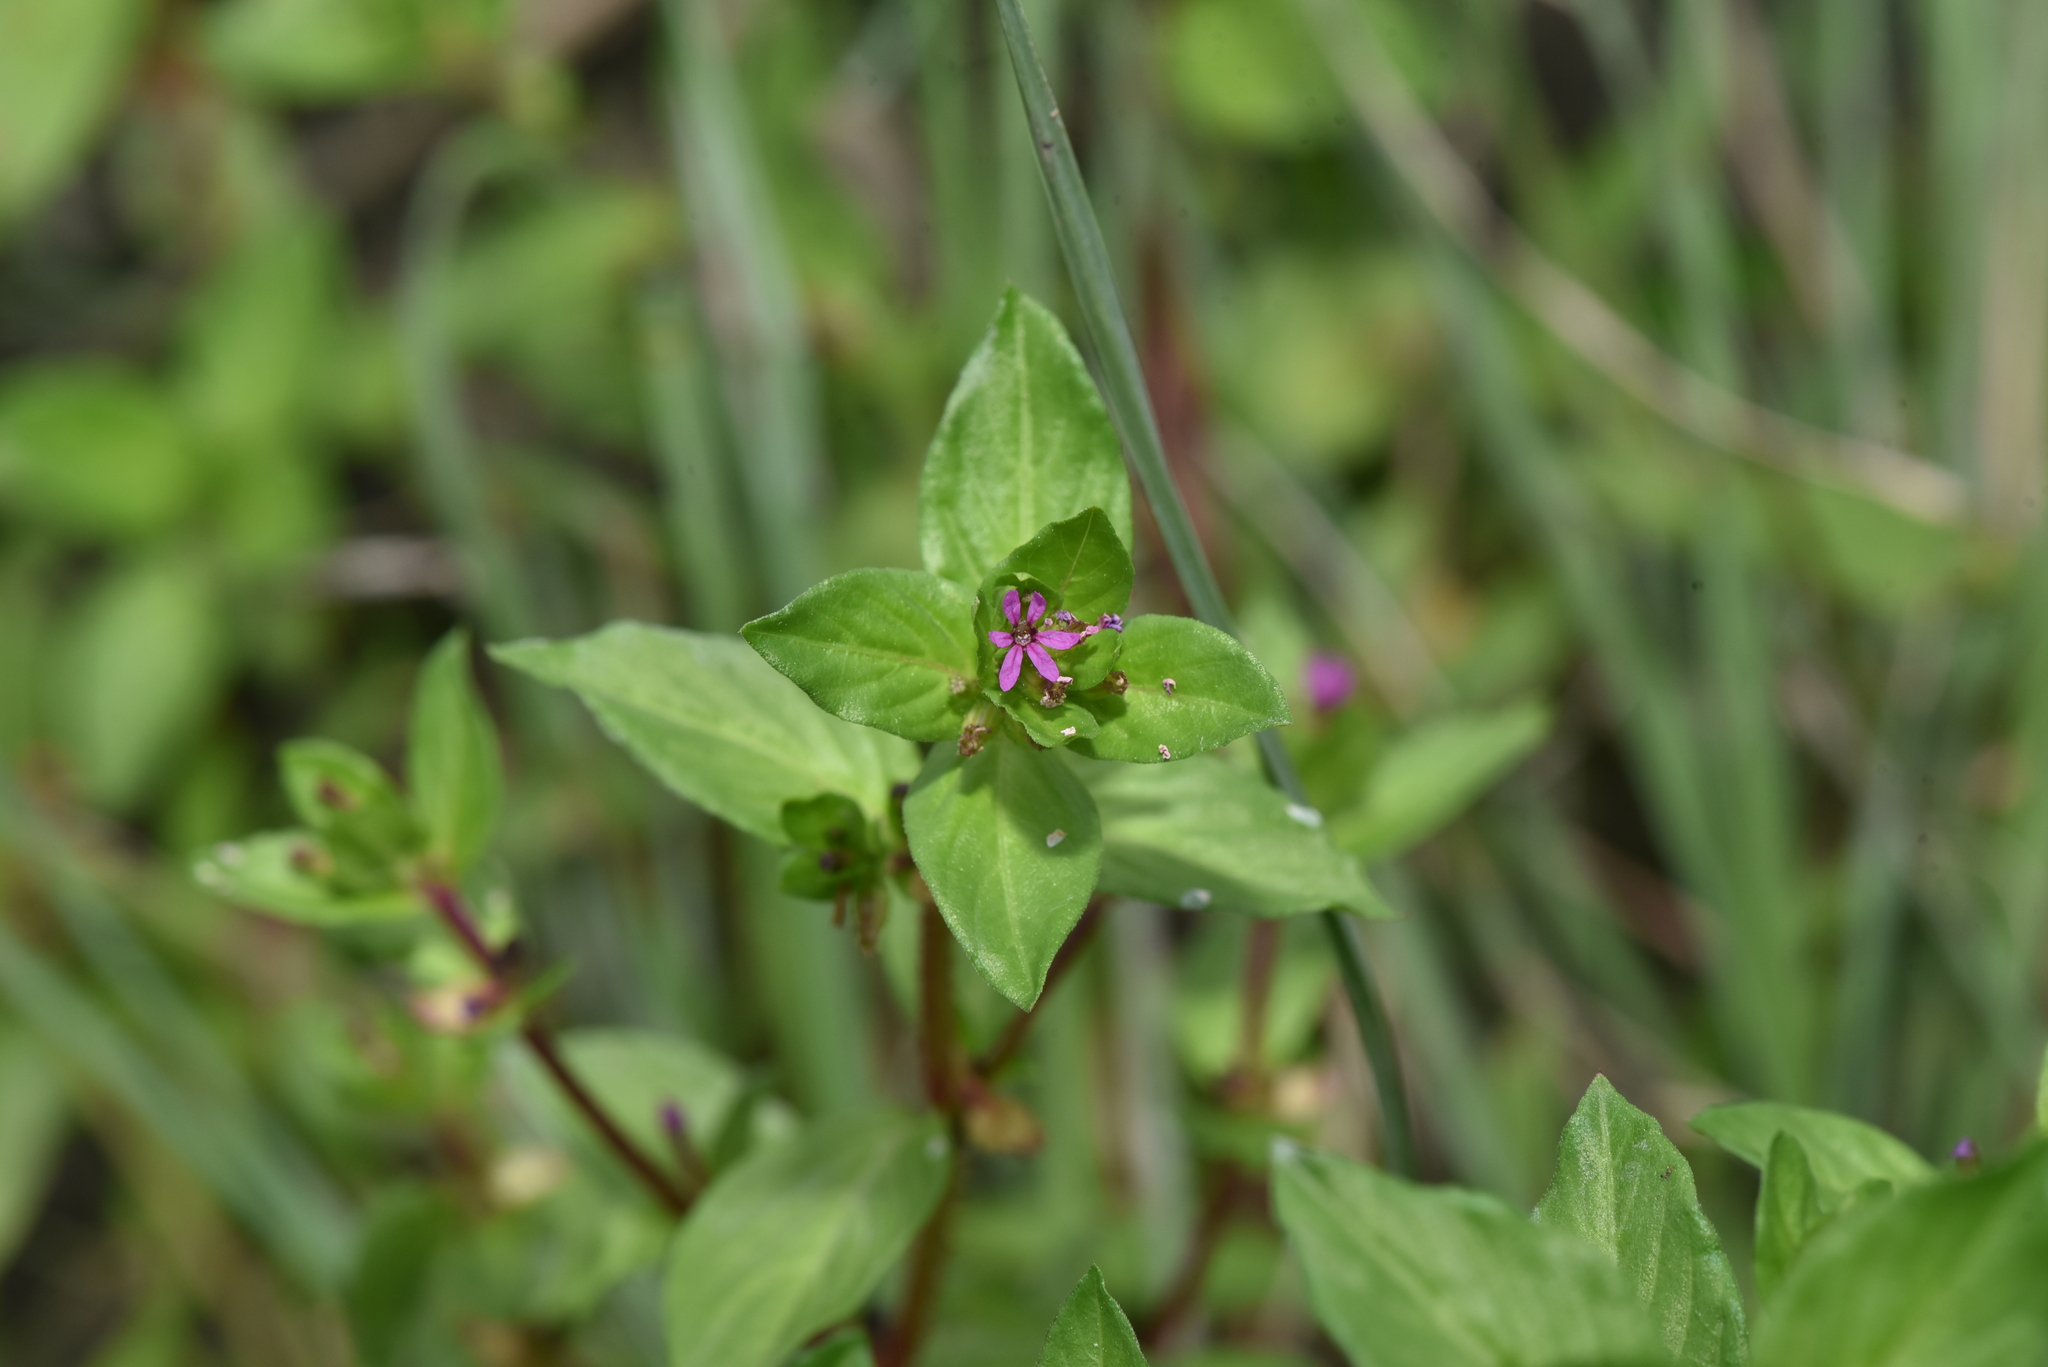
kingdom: Plantae
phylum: Tracheophyta
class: Magnoliopsida
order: Myrtales
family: Lythraceae
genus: Cuphea
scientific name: Cuphea carthagenensis
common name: Colombian waxweed
